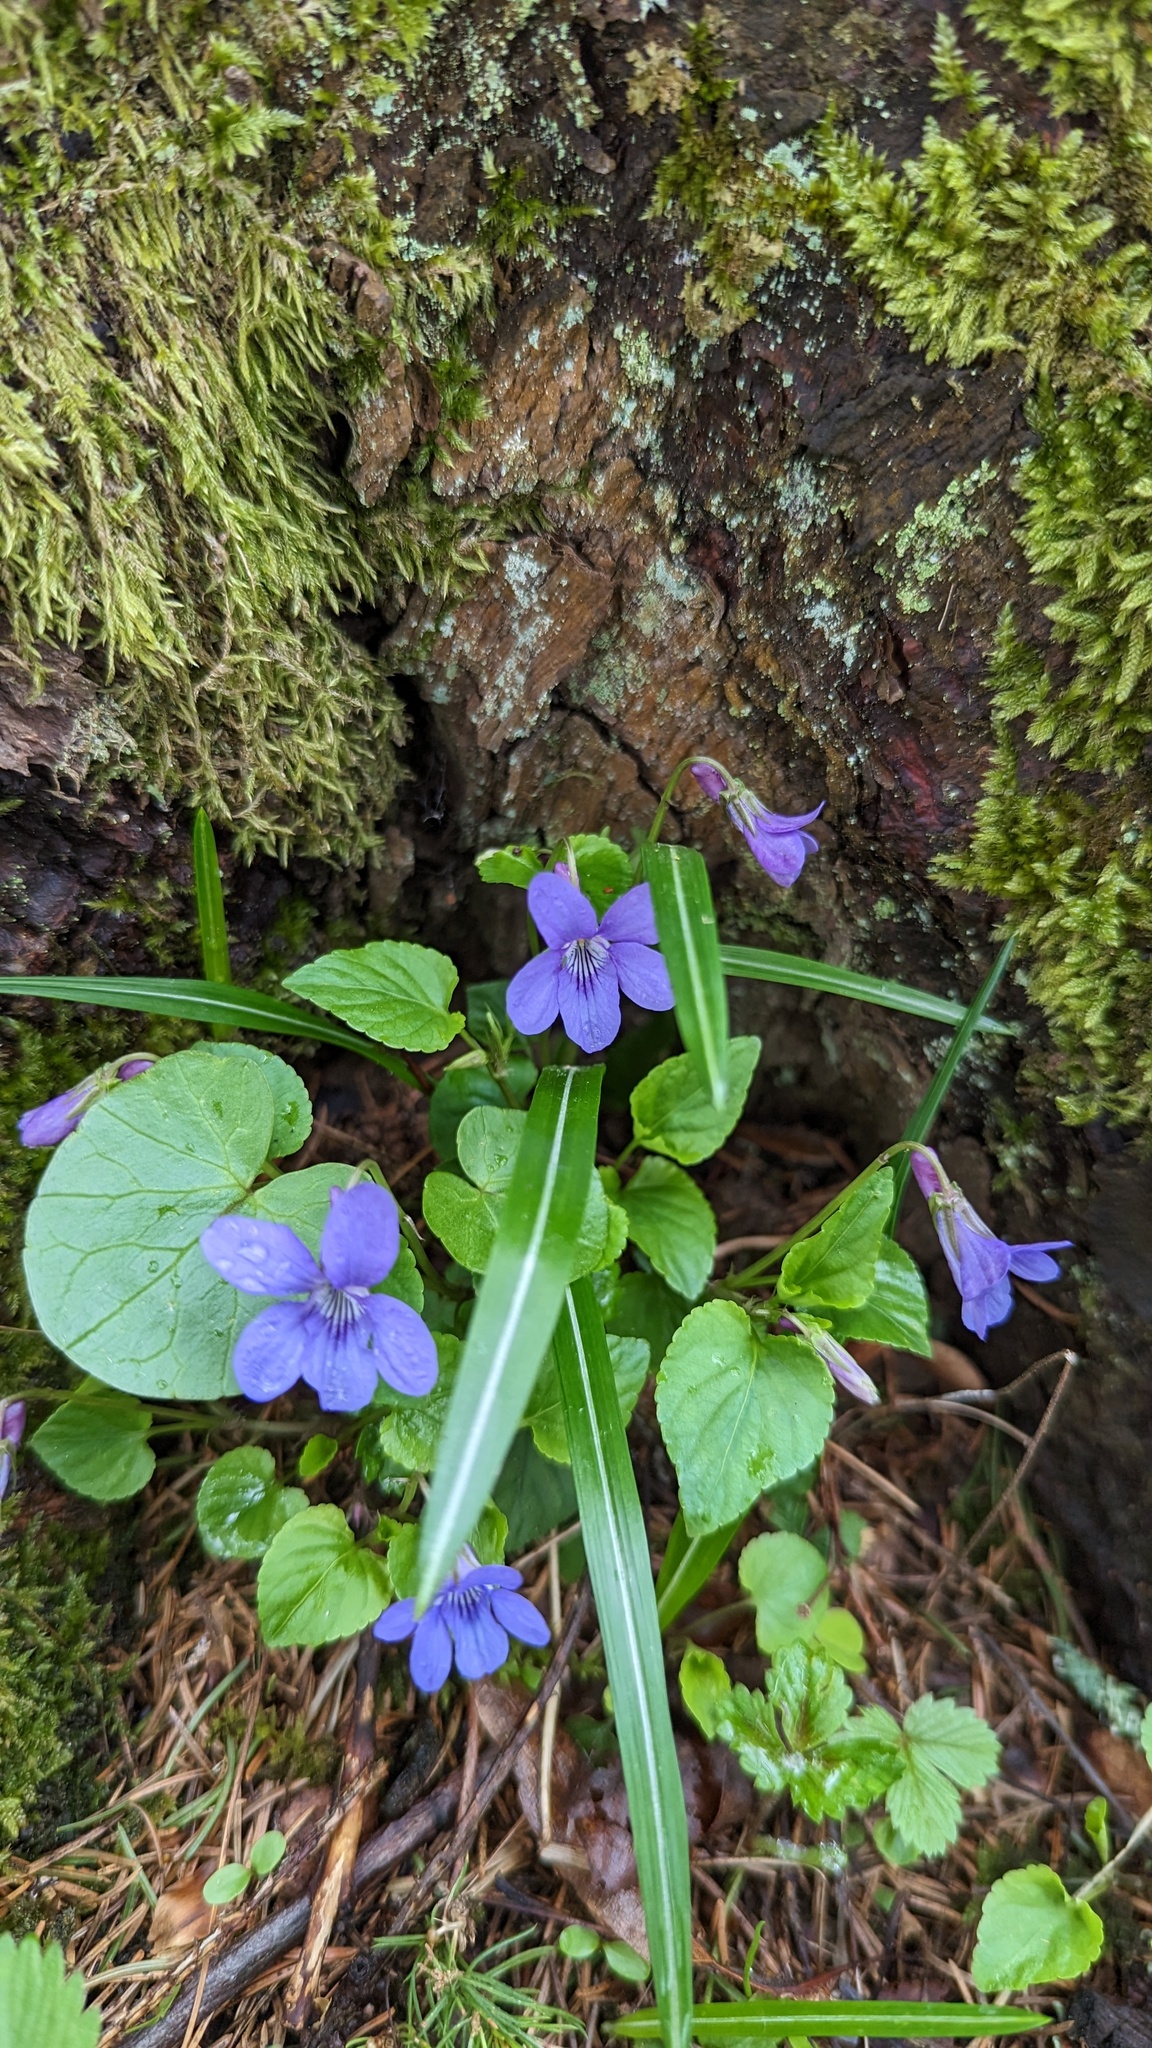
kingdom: Plantae
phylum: Tracheophyta
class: Magnoliopsida
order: Malpighiales
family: Violaceae
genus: Viola
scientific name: Viola reichenbachiana
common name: Early dog-violet
